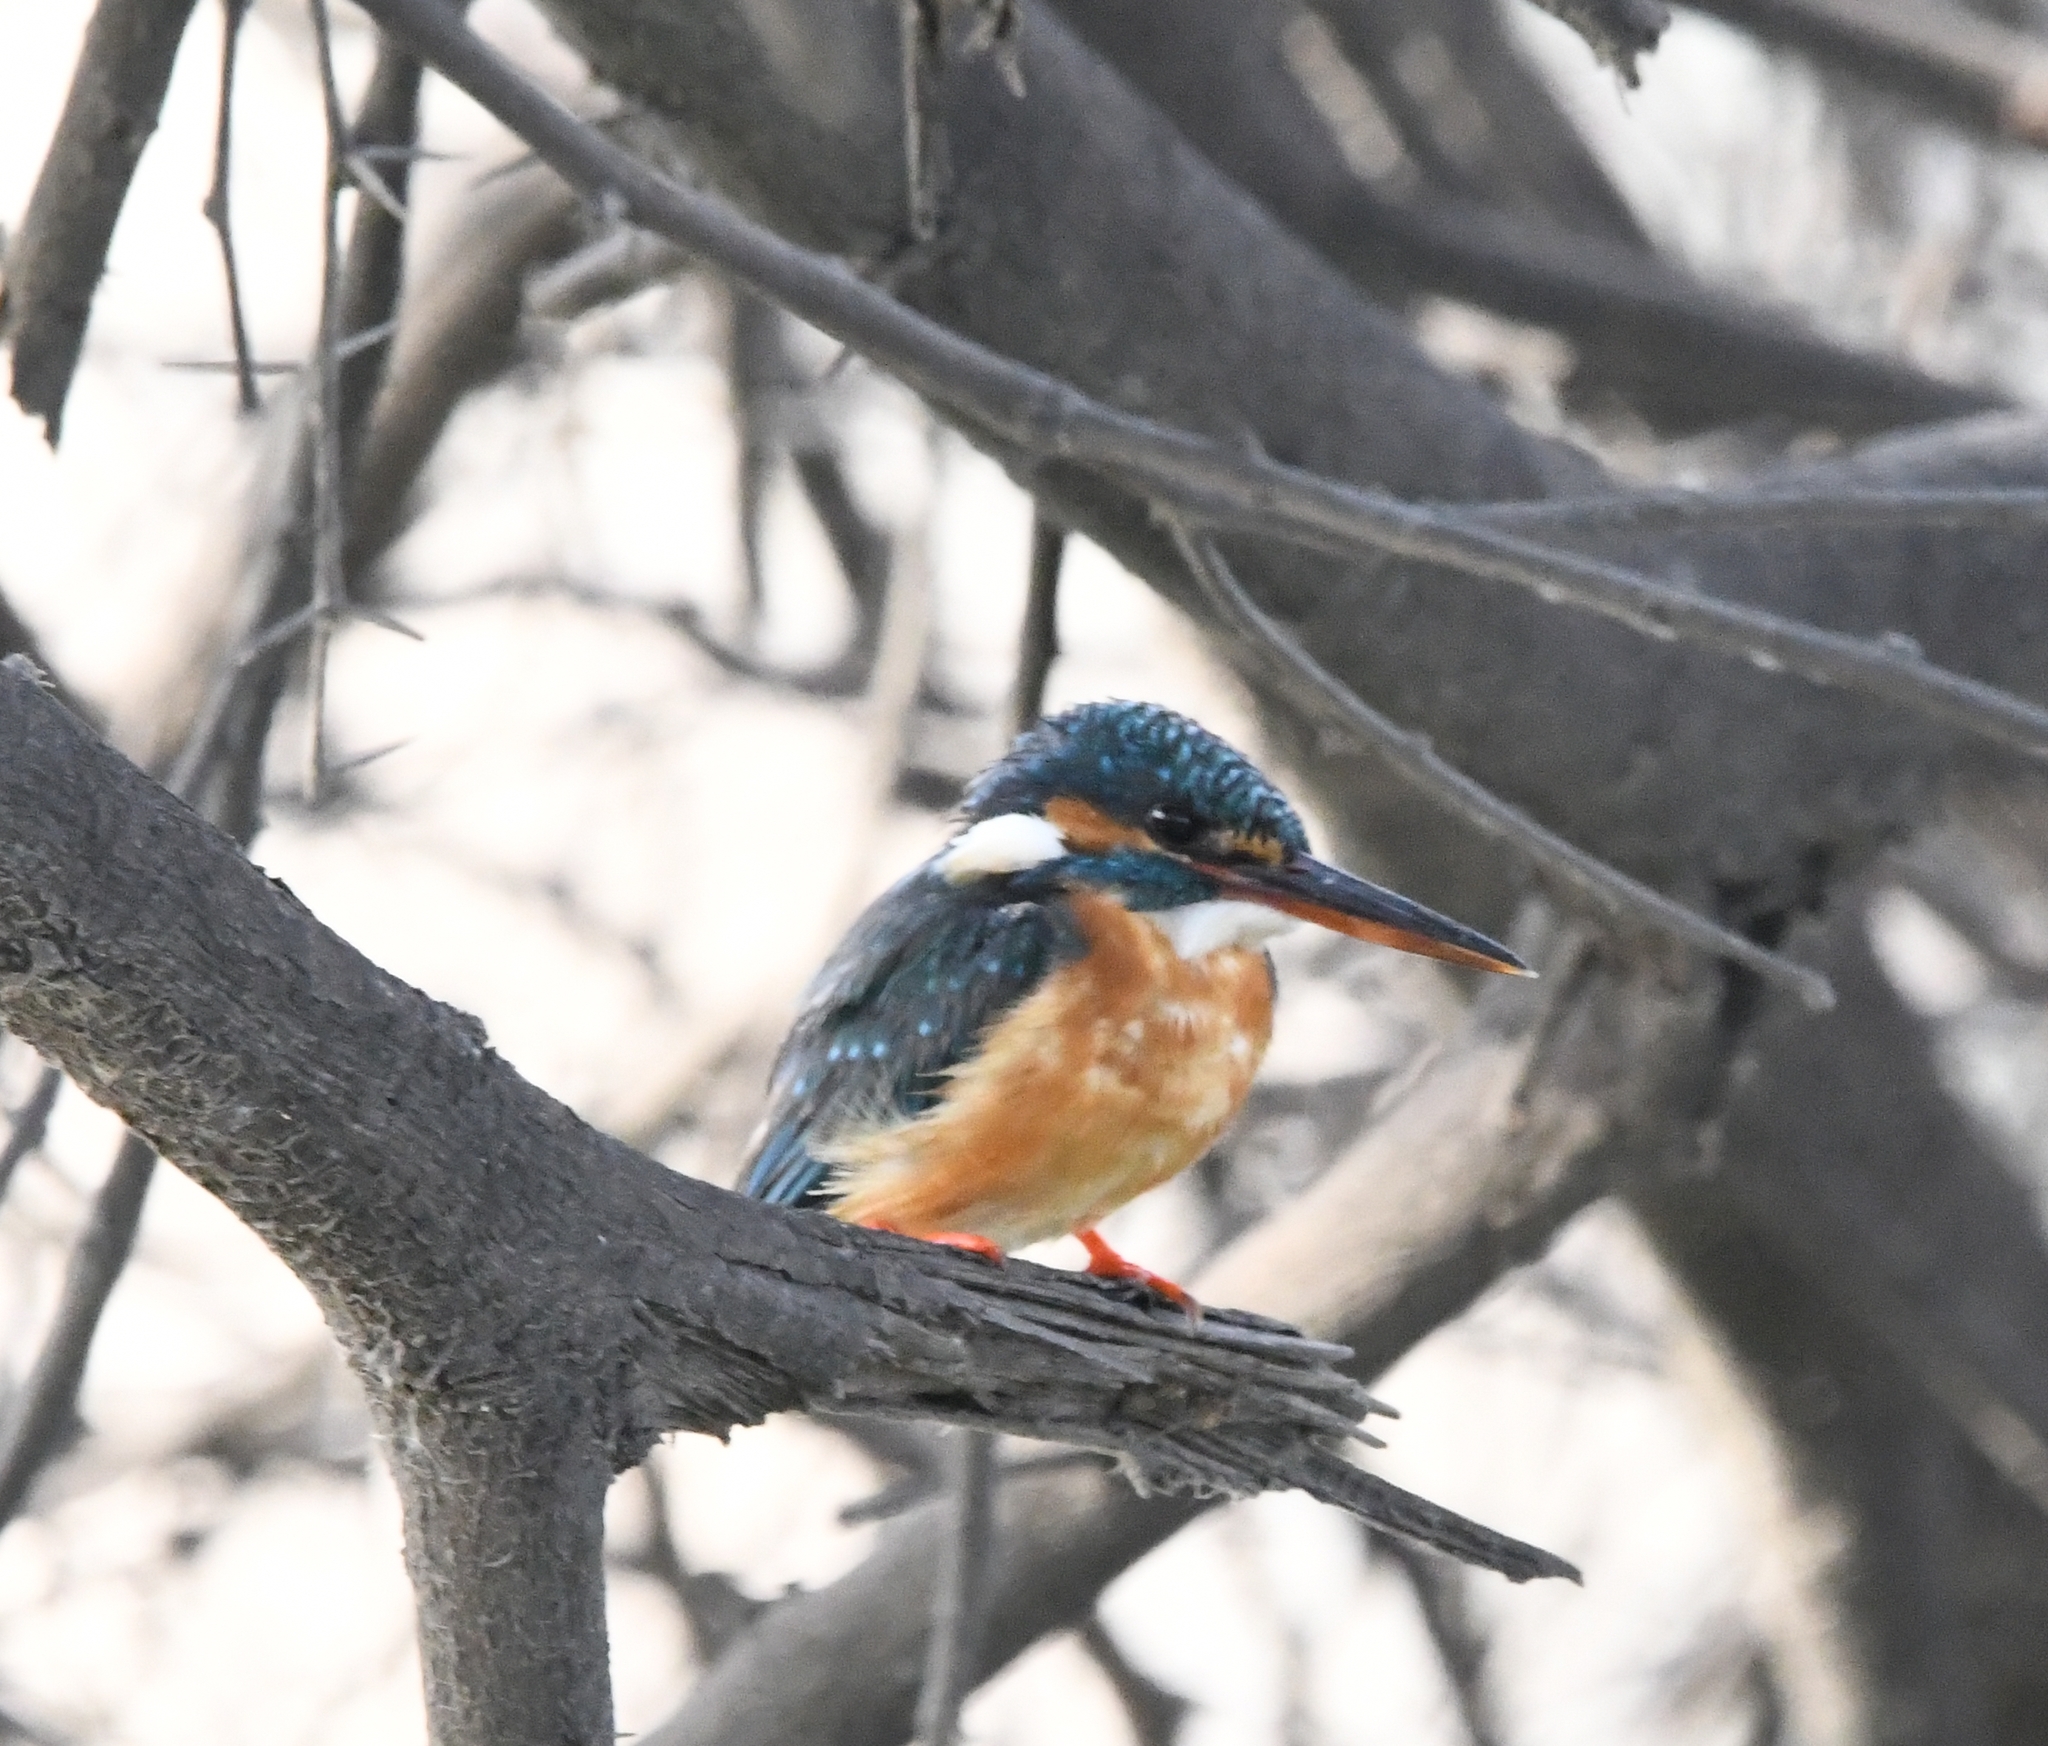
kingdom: Animalia
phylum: Chordata
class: Aves
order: Coraciiformes
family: Alcedinidae
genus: Alcedo
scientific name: Alcedo atthis
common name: Common kingfisher
